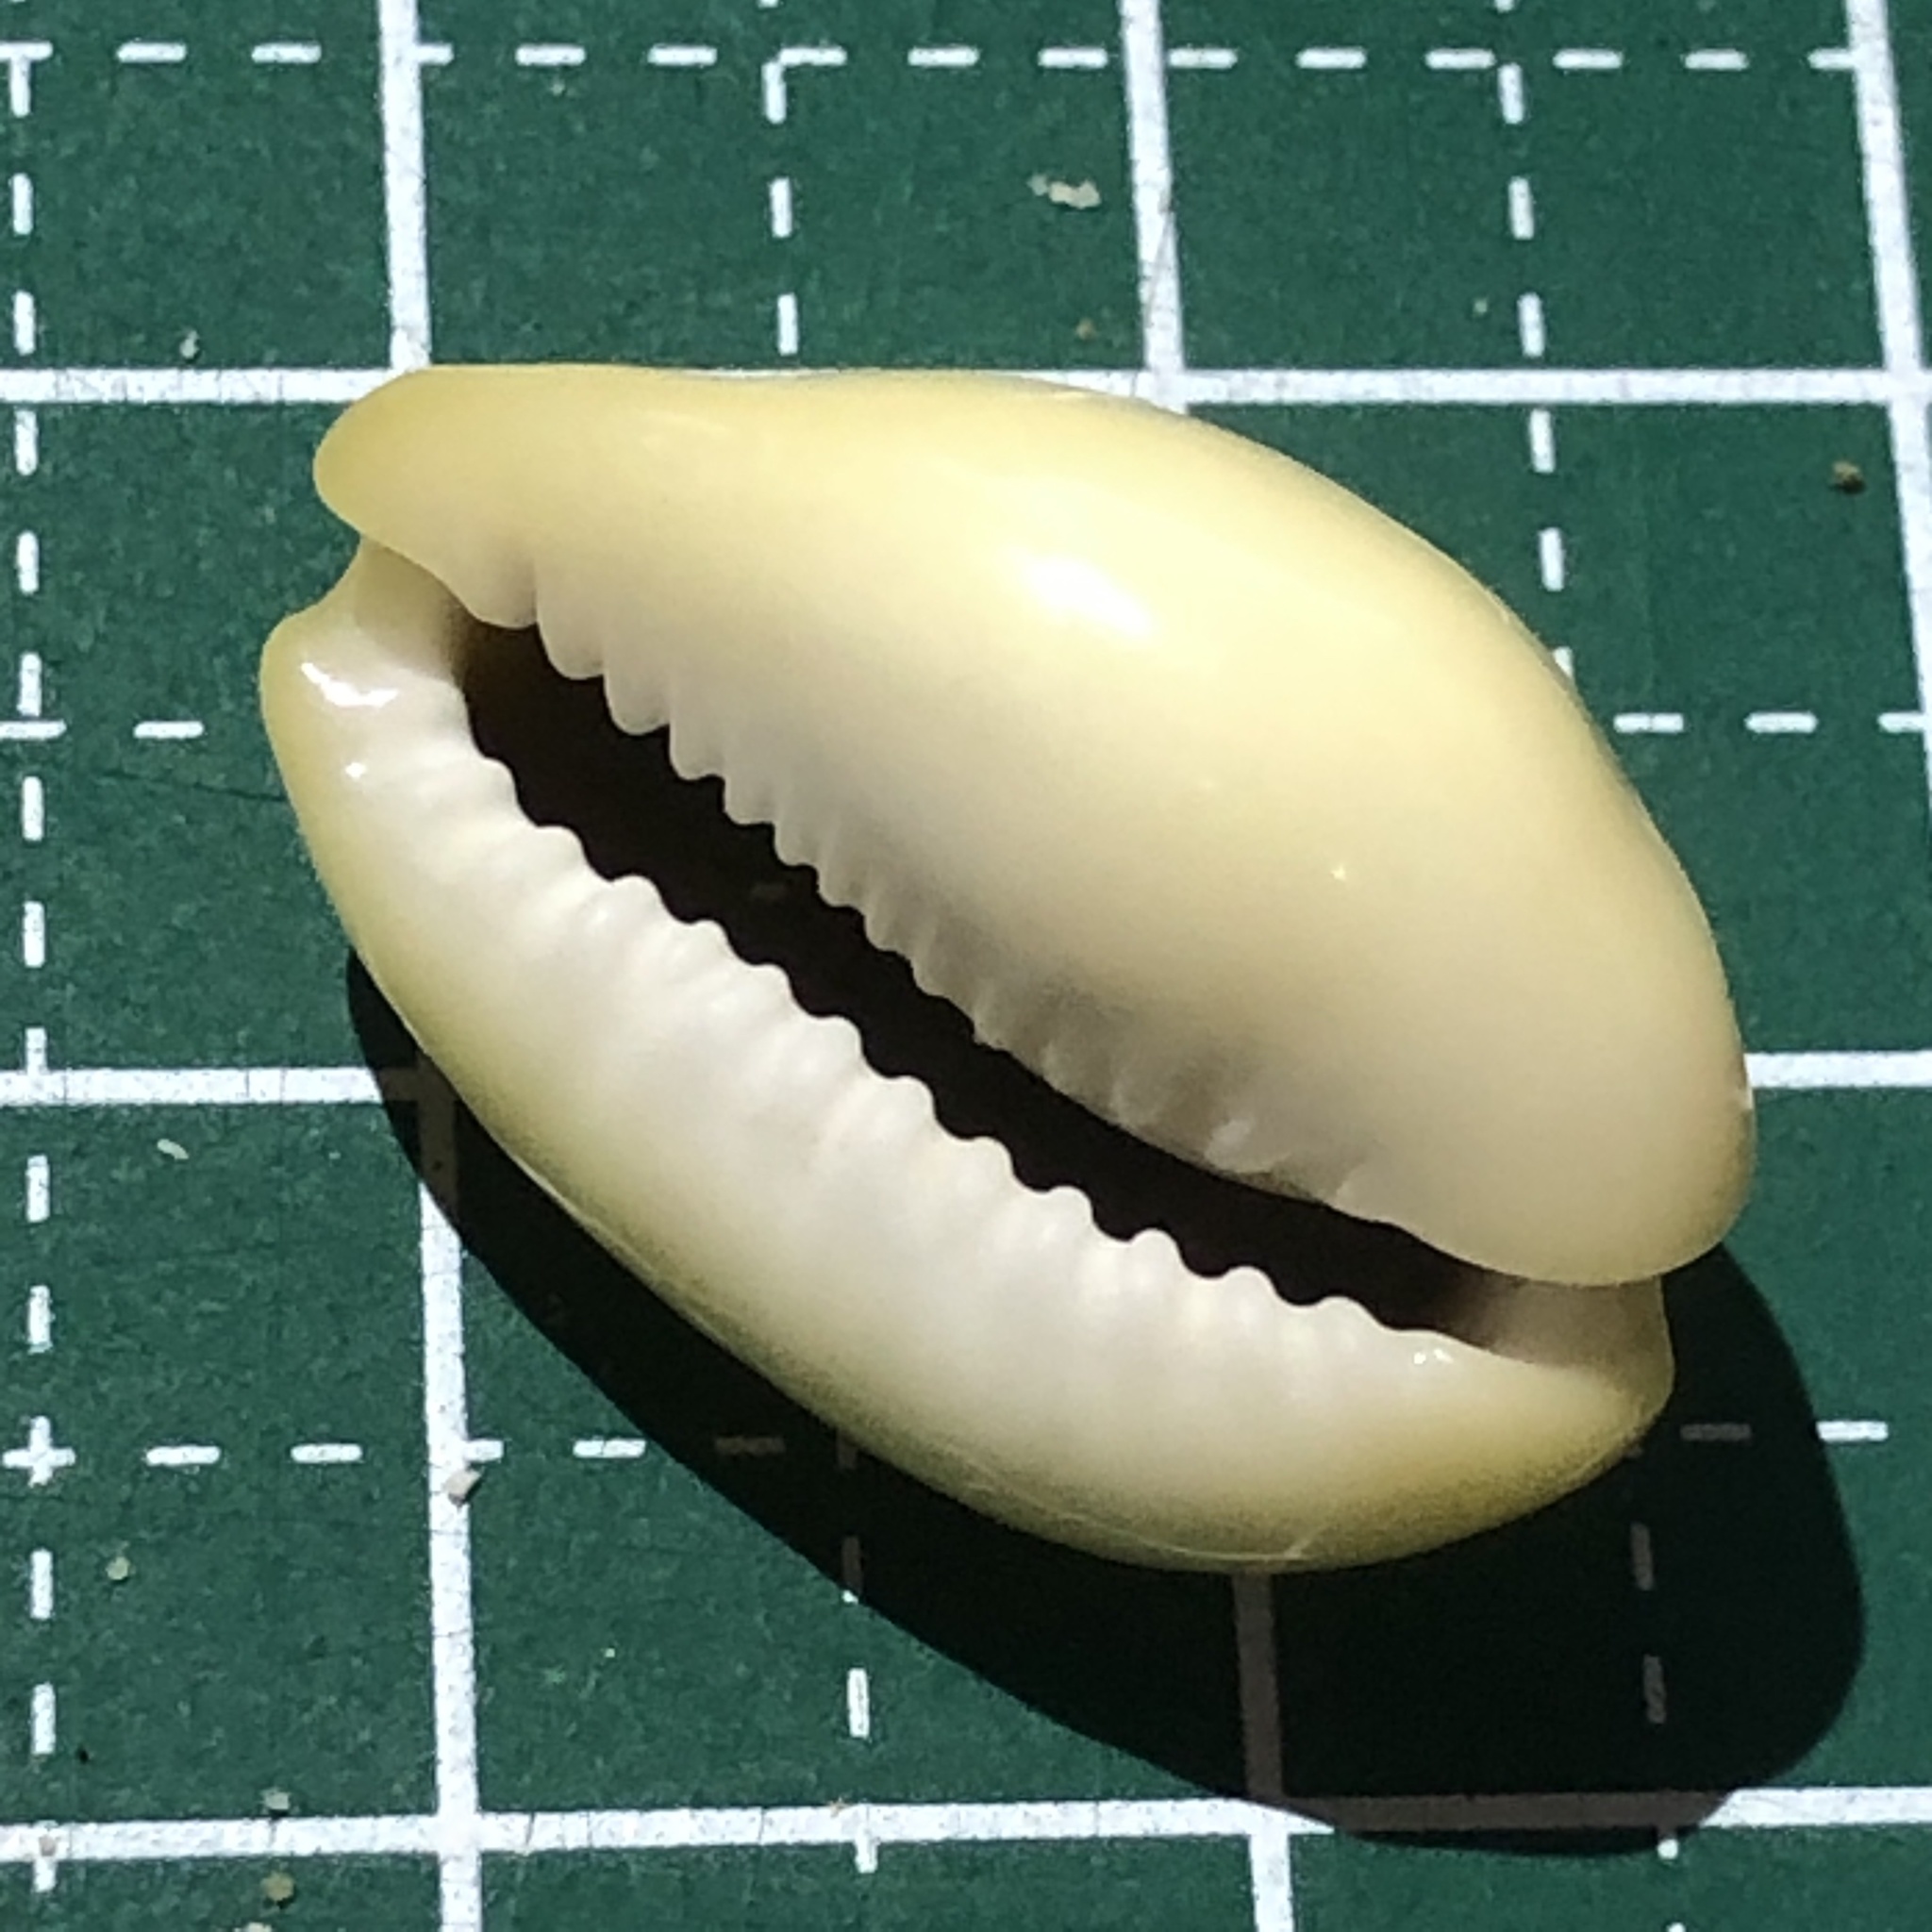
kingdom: Animalia
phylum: Mollusca
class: Gastropoda
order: Littorinimorpha
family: Cypraeidae
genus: Monetaria
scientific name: Monetaria moneta
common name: Money cowrie
